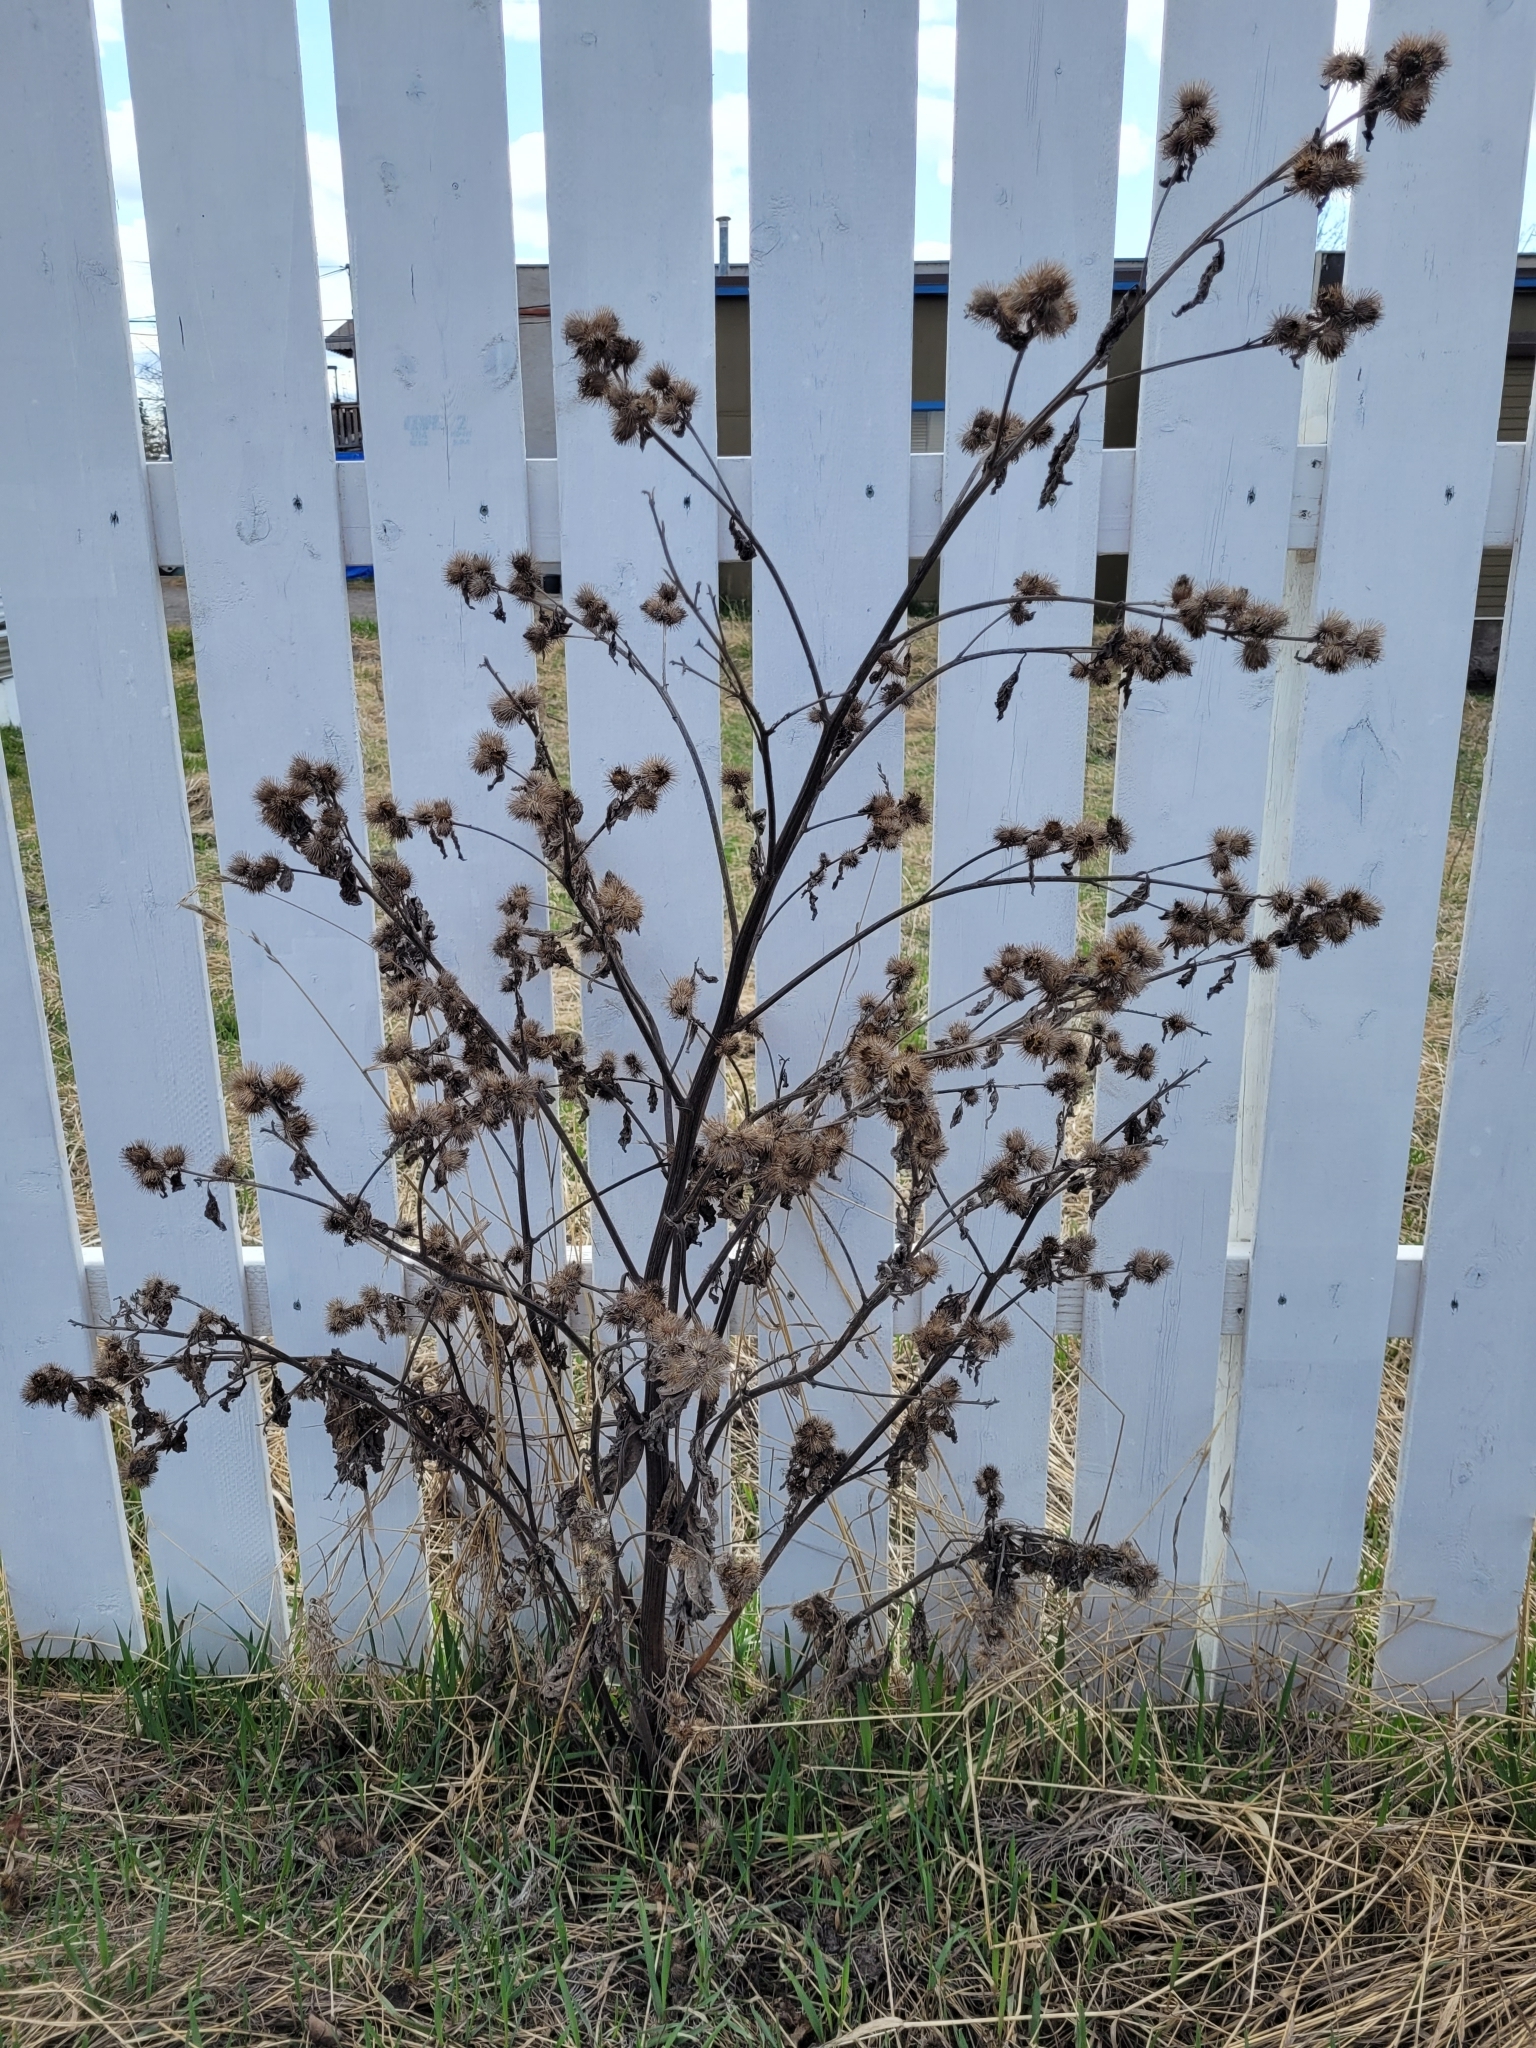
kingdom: Plantae
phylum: Tracheophyta
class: Magnoliopsida
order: Asterales
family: Asteraceae
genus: Arctium
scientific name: Arctium lappa
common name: Greater burdock
